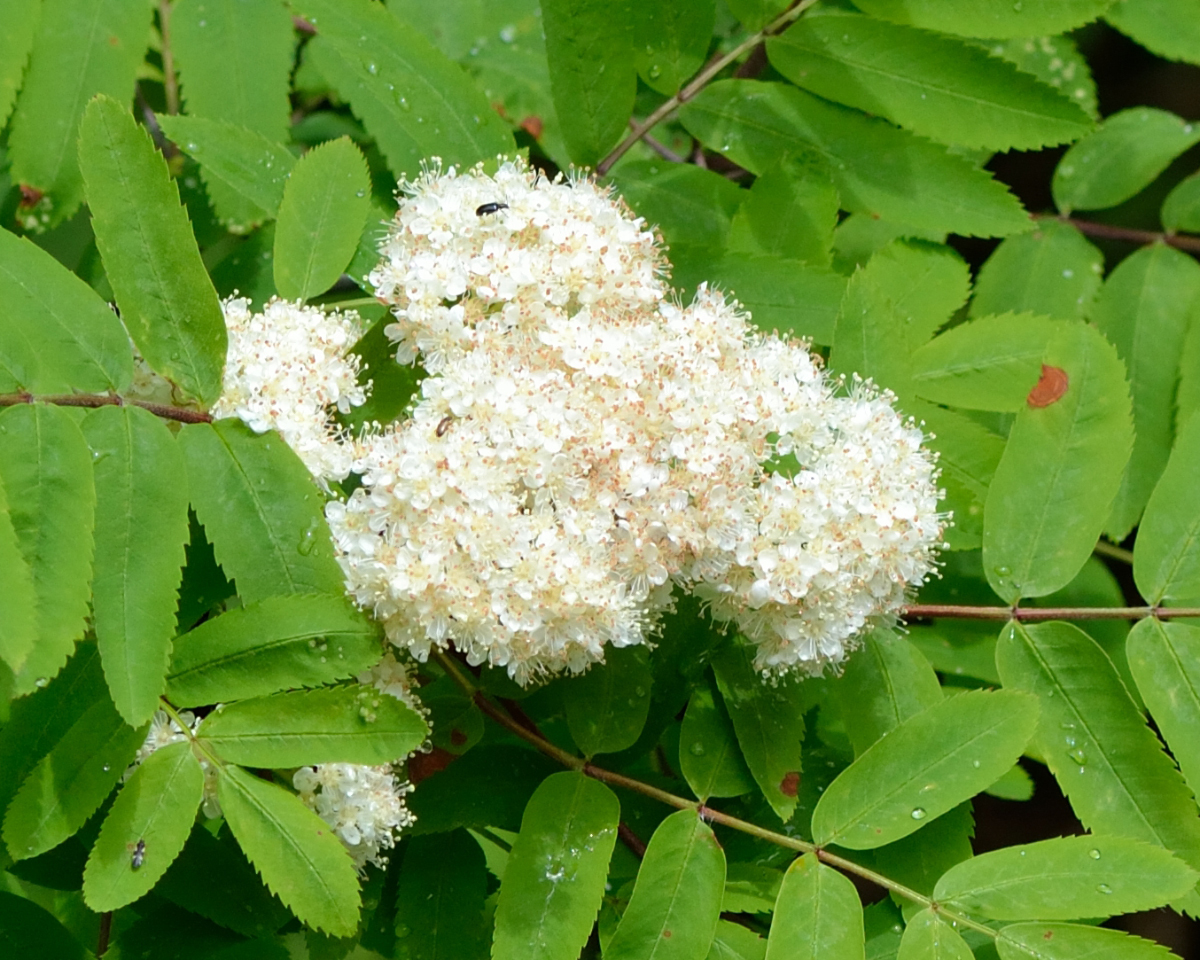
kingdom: Plantae
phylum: Tracheophyta
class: Magnoliopsida
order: Rosales
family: Rosaceae
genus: Sorbus
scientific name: Sorbus aucuparia
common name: Rowan
